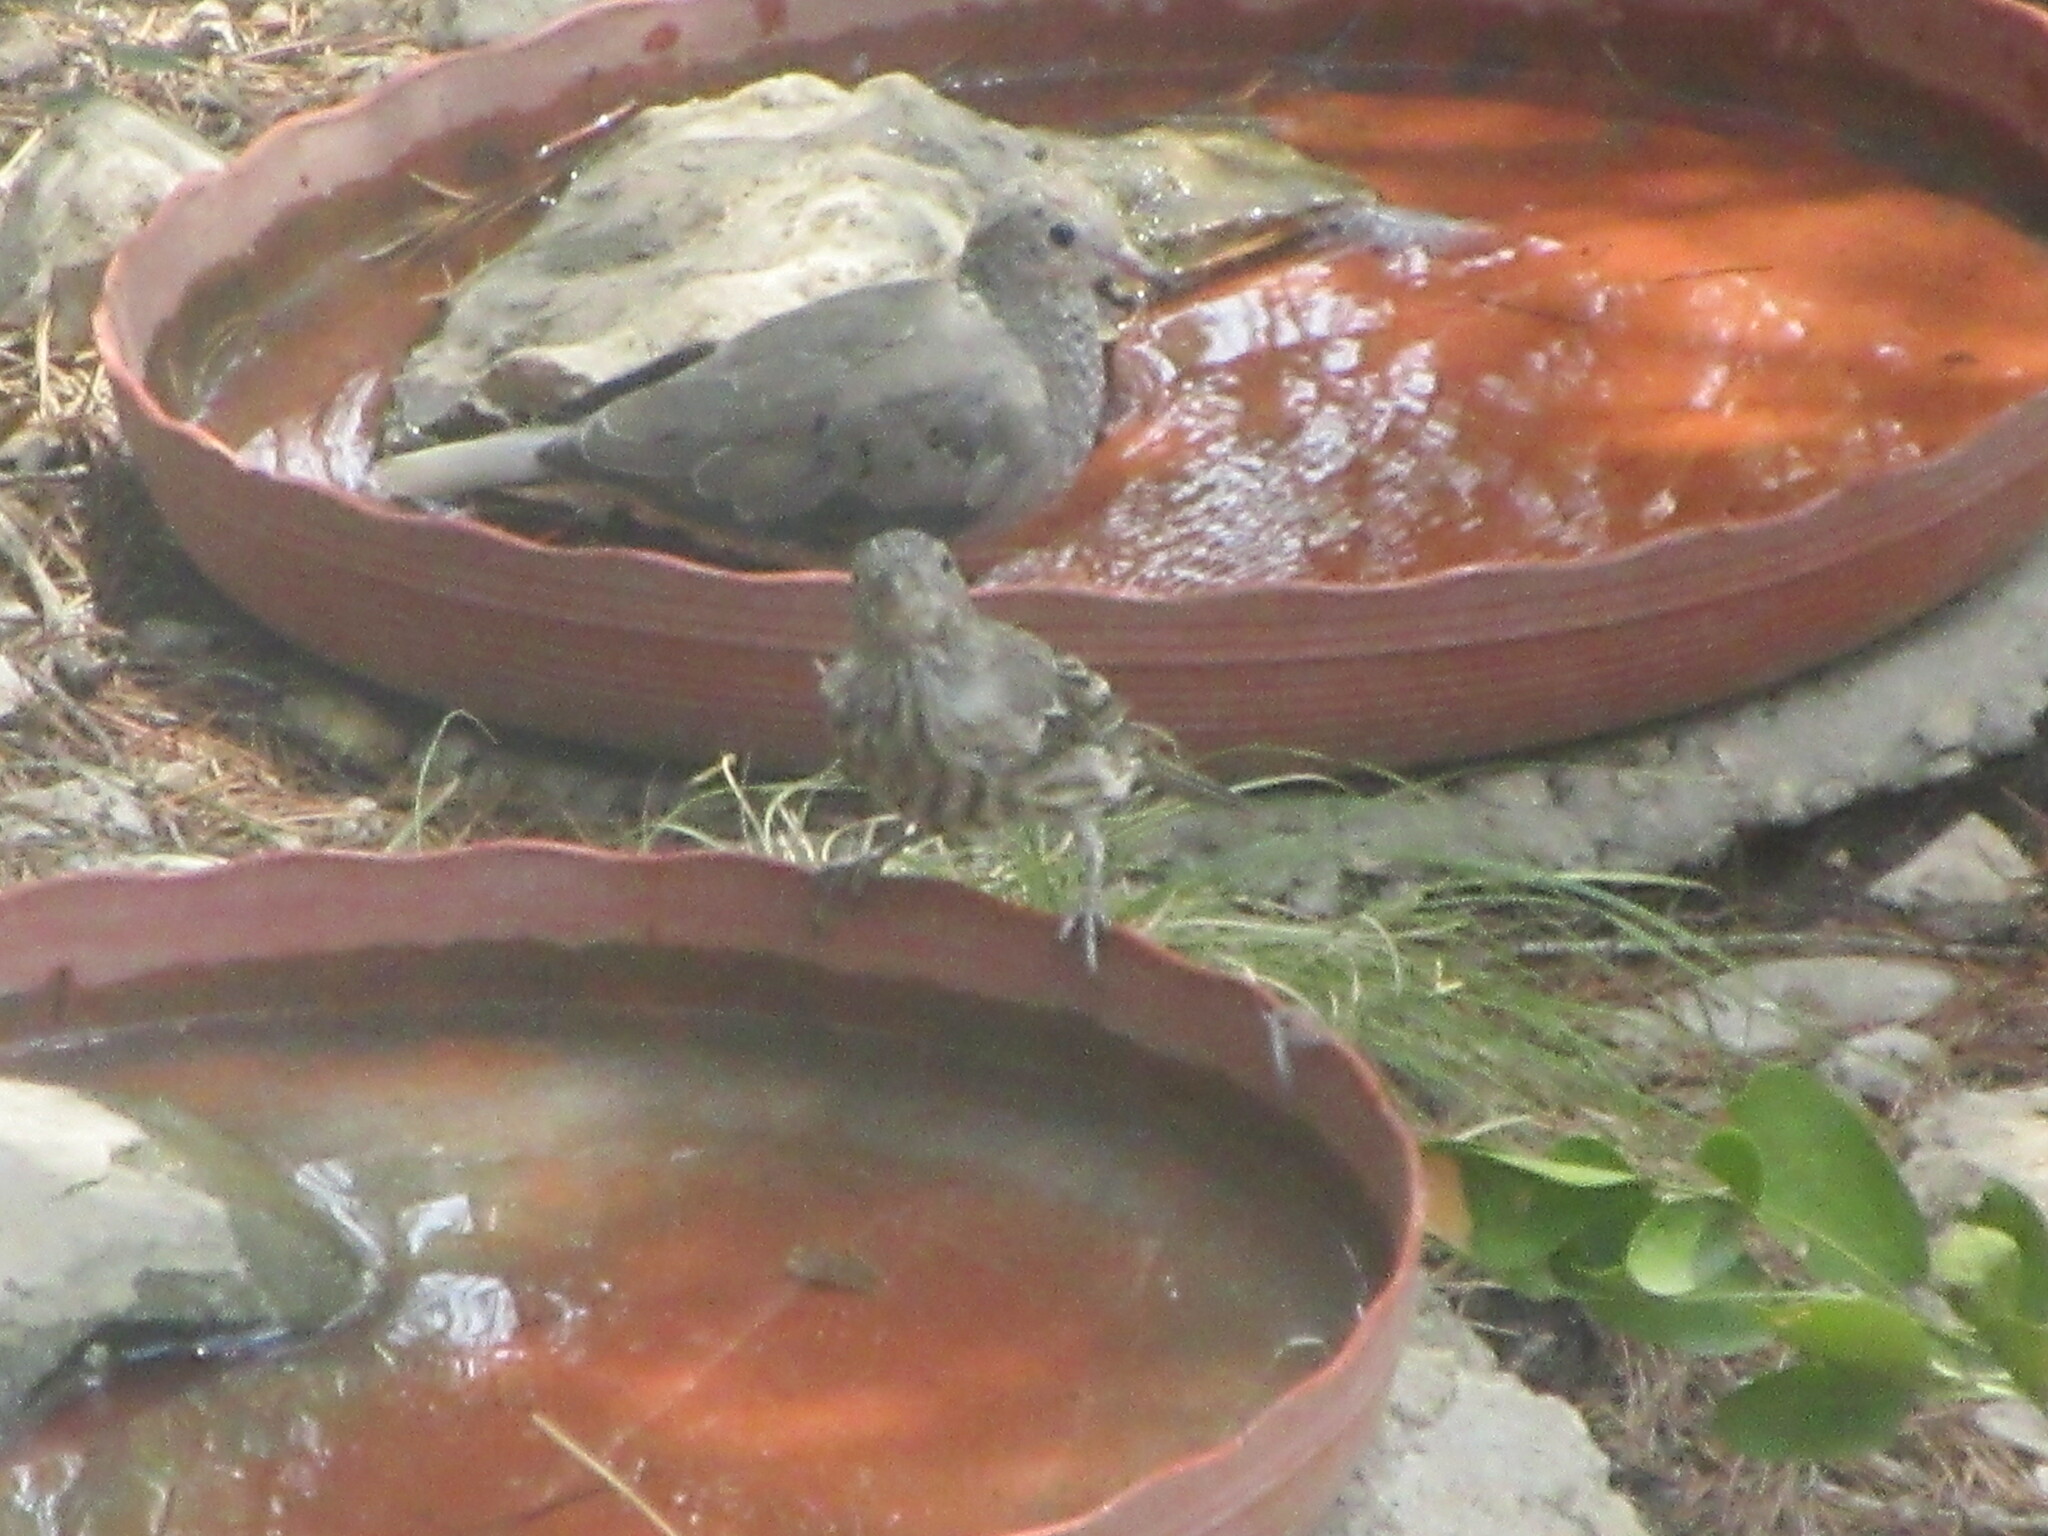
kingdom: Animalia
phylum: Chordata
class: Aves
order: Columbiformes
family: Columbidae
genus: Columbina
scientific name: Columbina passerina
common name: Common ground-dove
